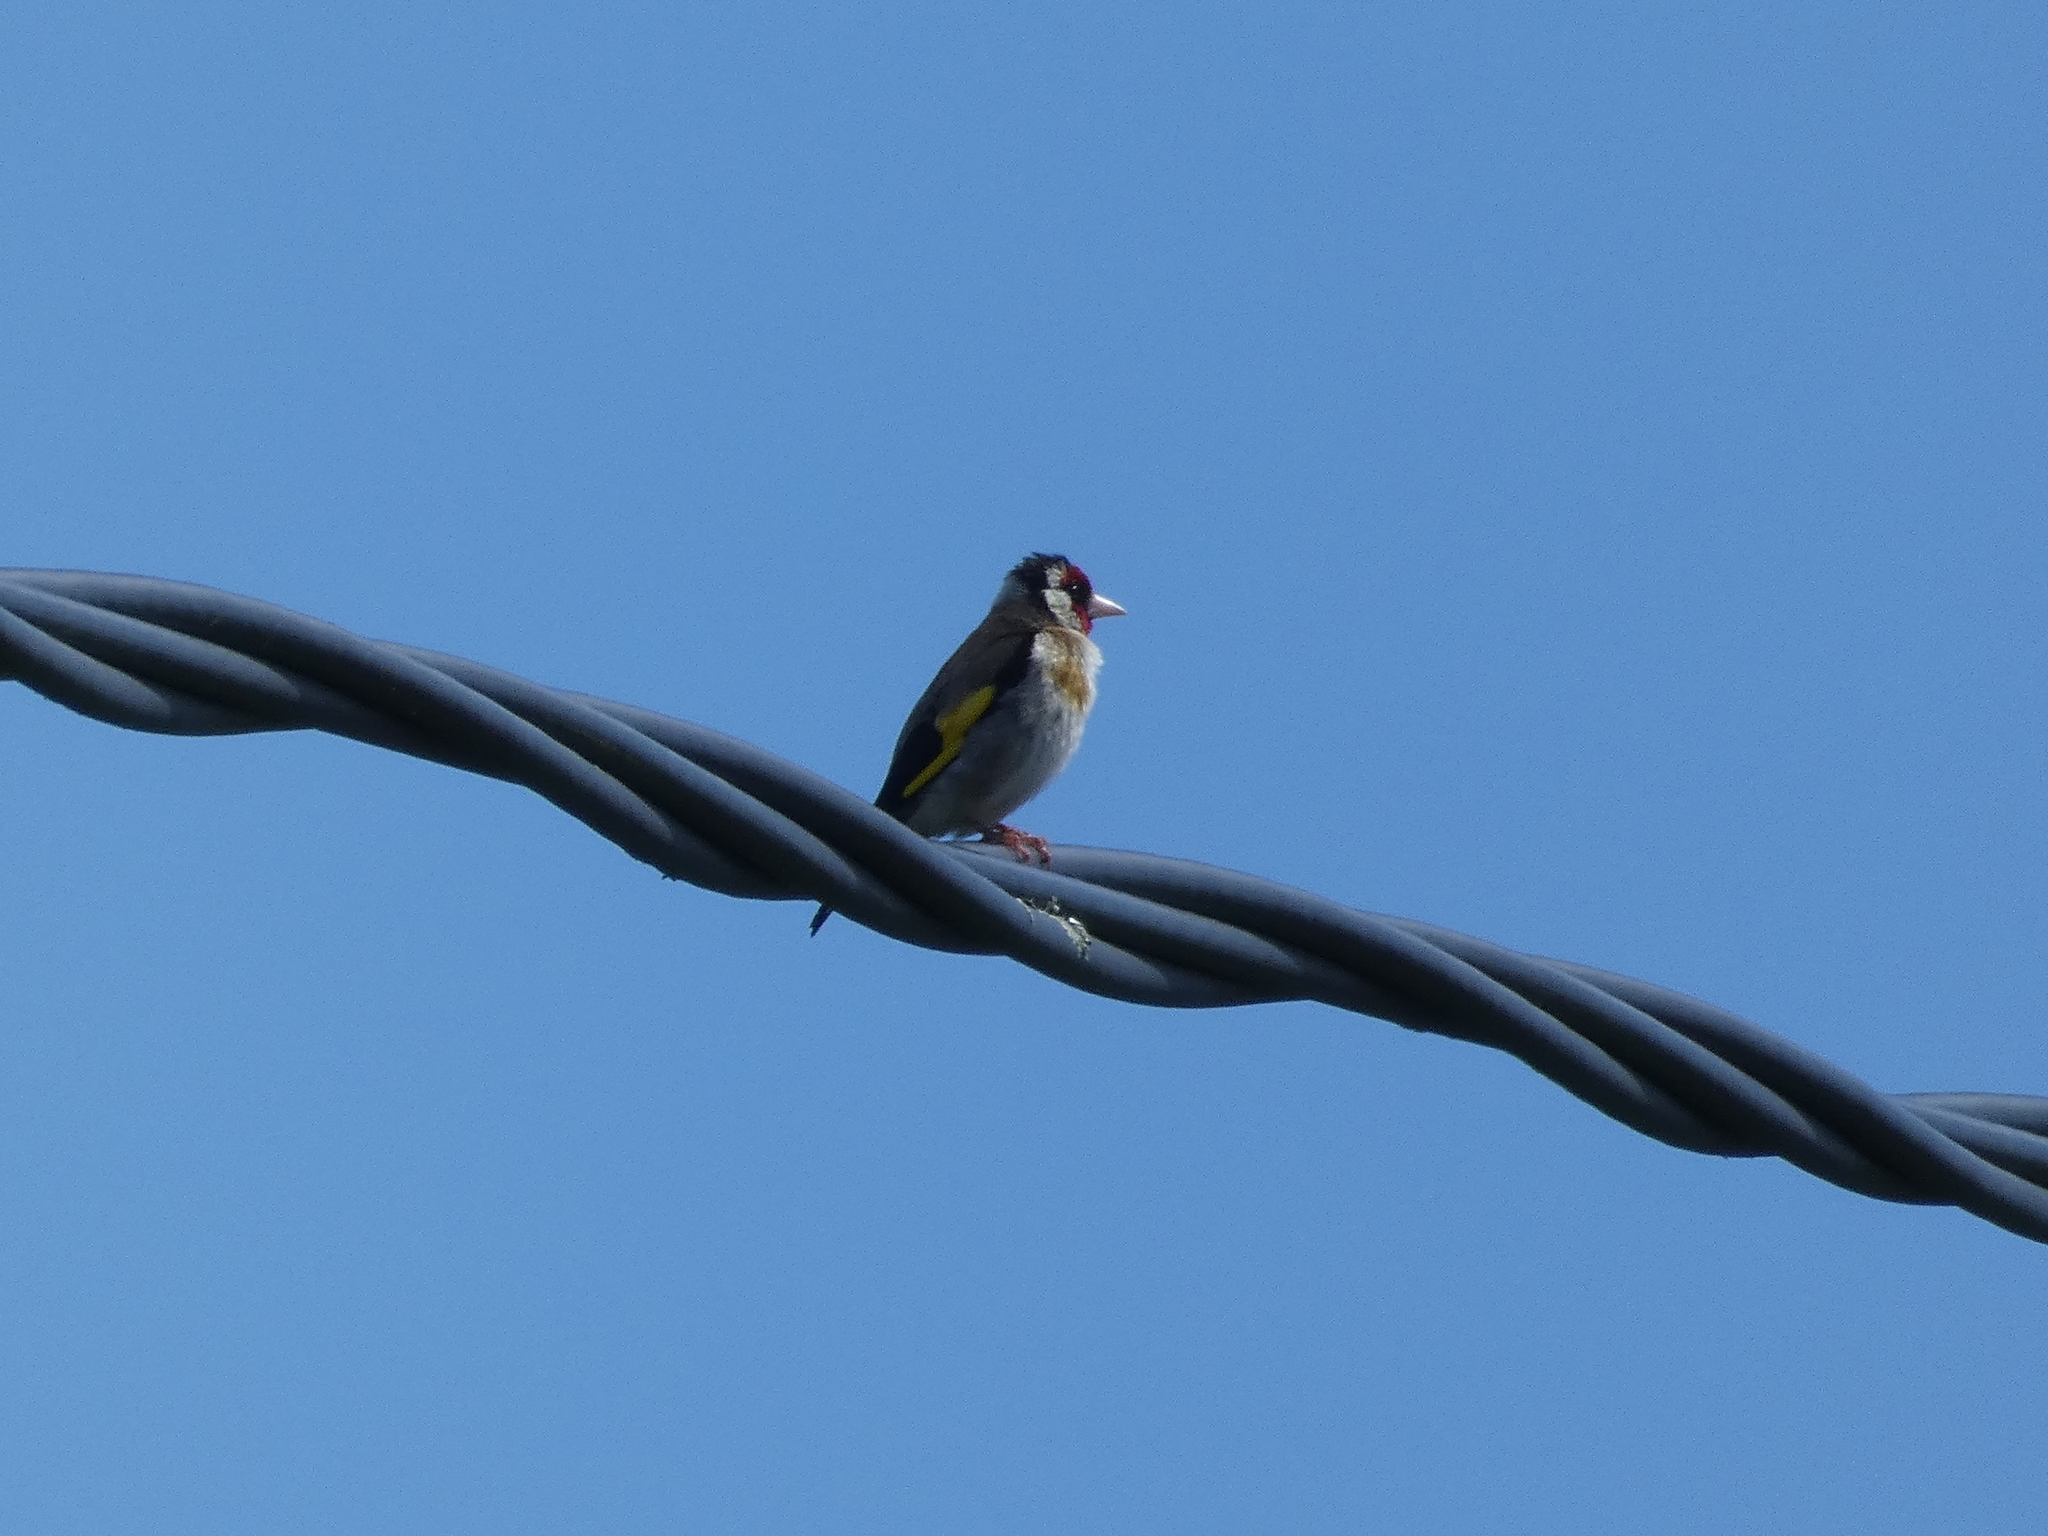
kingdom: Animalia
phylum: Chordata
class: Aves
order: Passeriformes
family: Fringillidae
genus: Carduelis
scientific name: Carduelis carduelis
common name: European goldfinch
